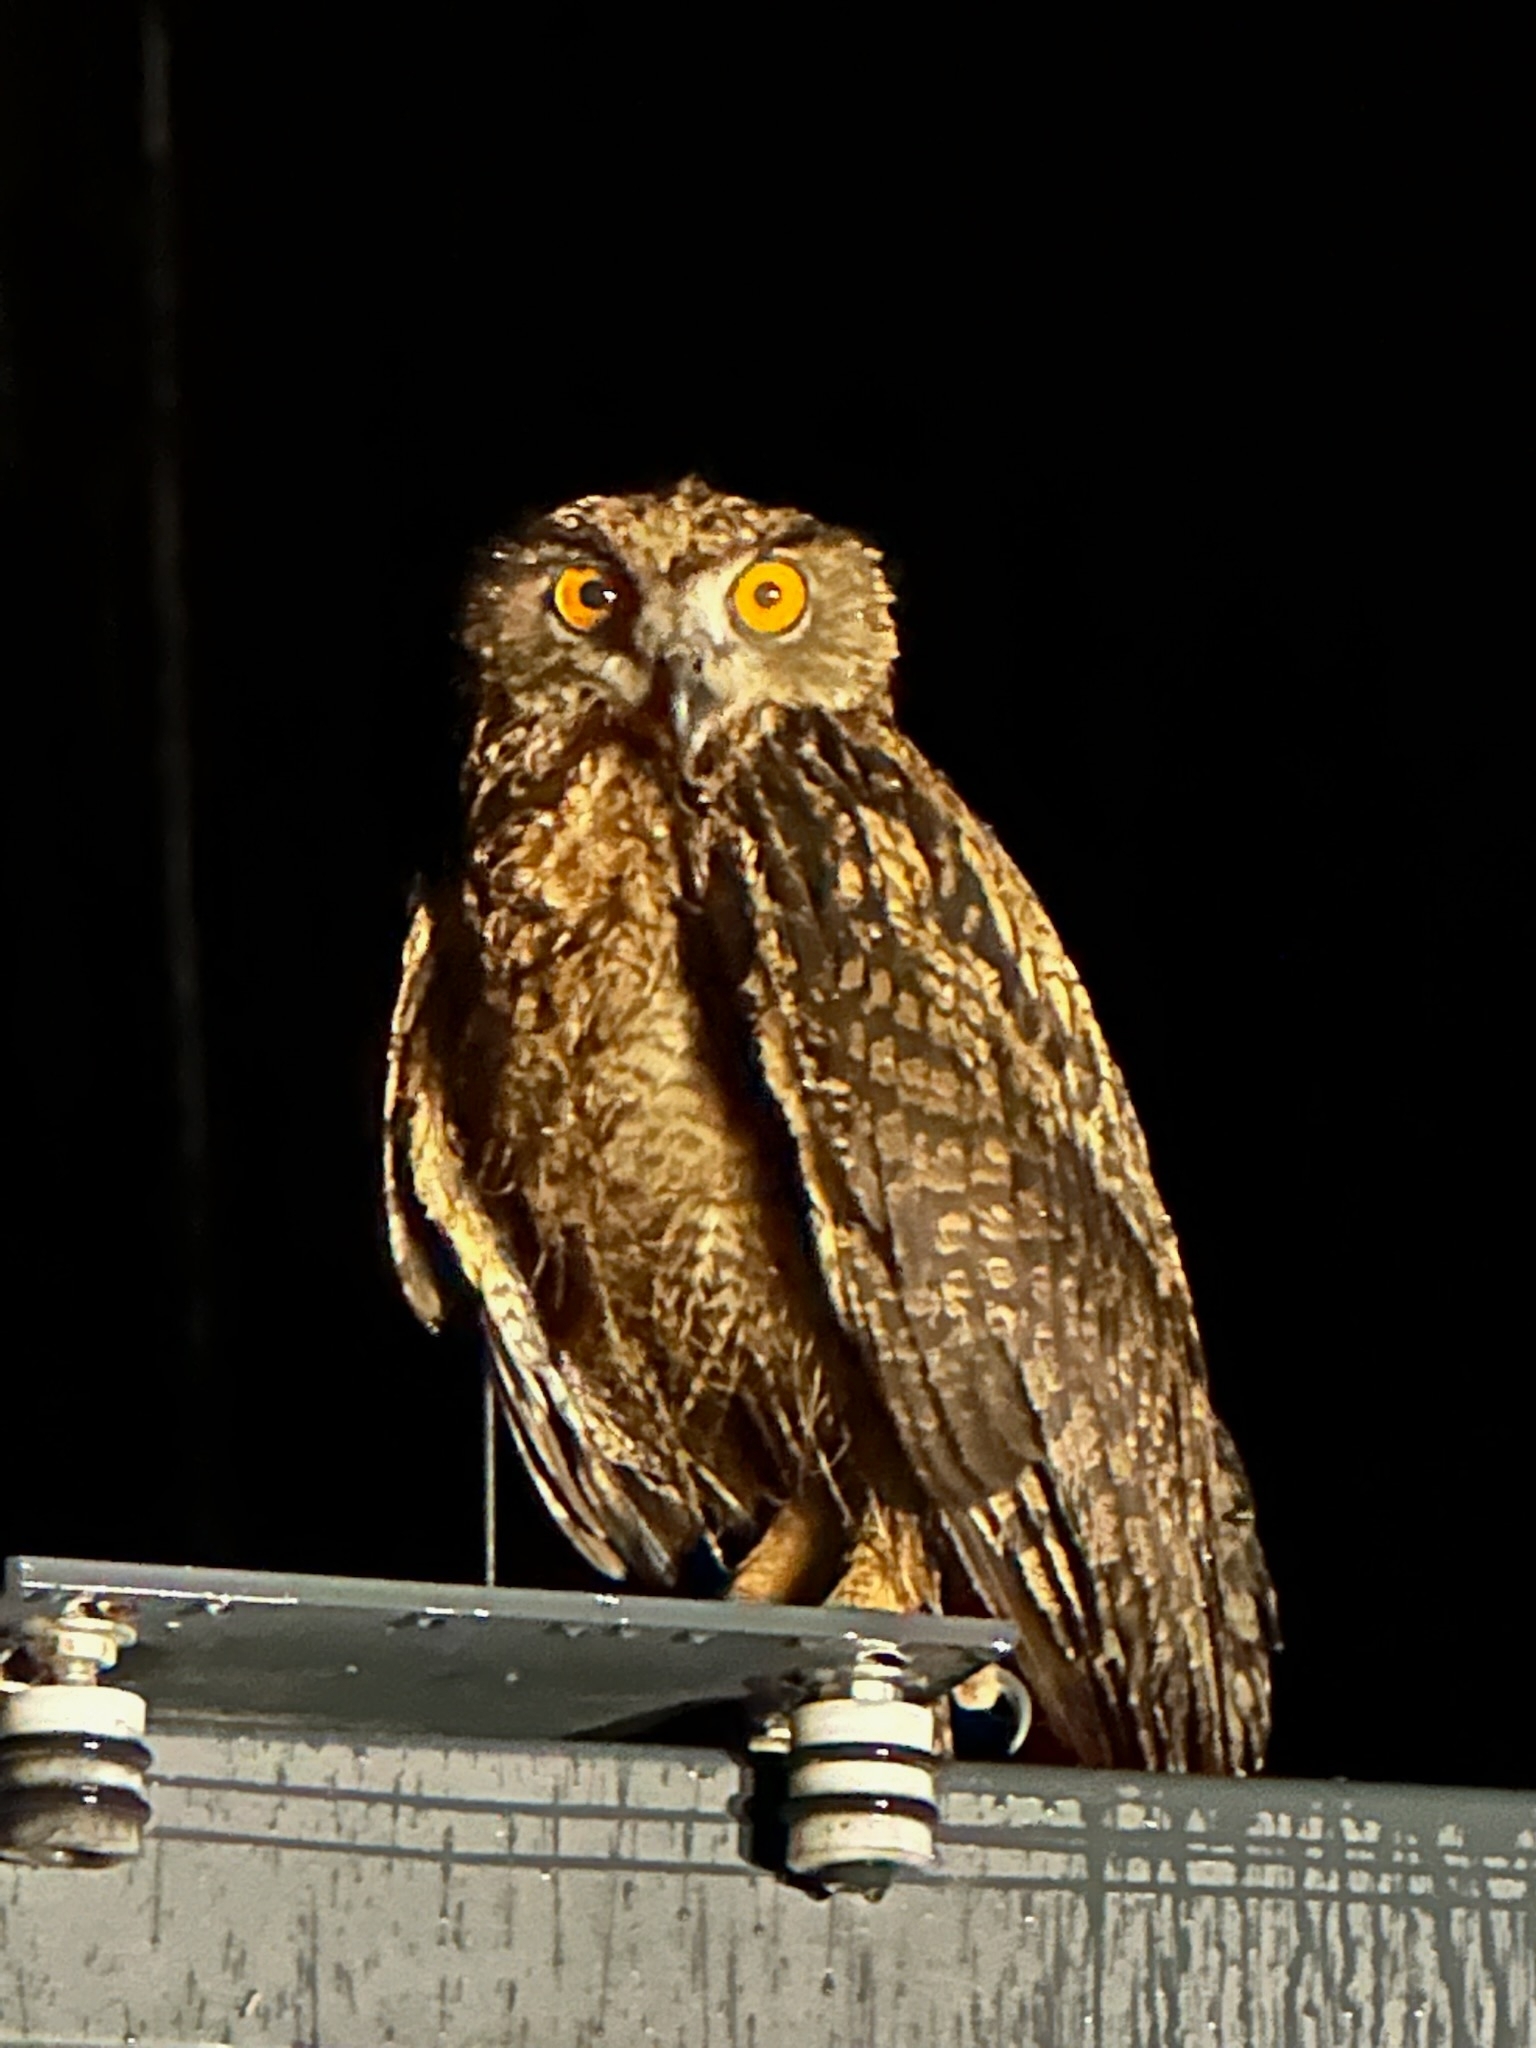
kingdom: Animalia
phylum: Chordata
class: Aves
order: Strigiformes
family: Strigidae
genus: Bubo
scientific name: Bubo bubo
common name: Eurasian eagle-owl
